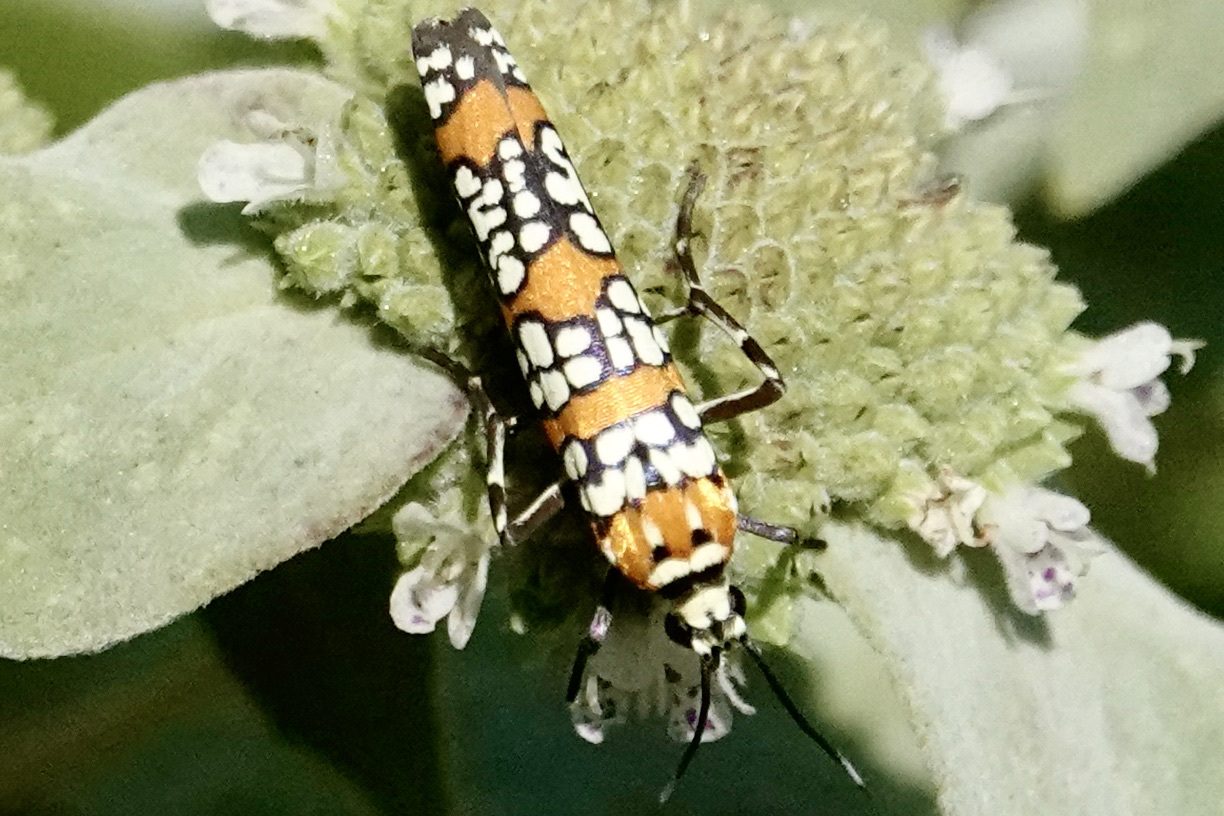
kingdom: Animalia
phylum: Arthropoda
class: Insecta
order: Lepidoptera
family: Attevidae
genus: Atteva
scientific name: Atteva punctella
